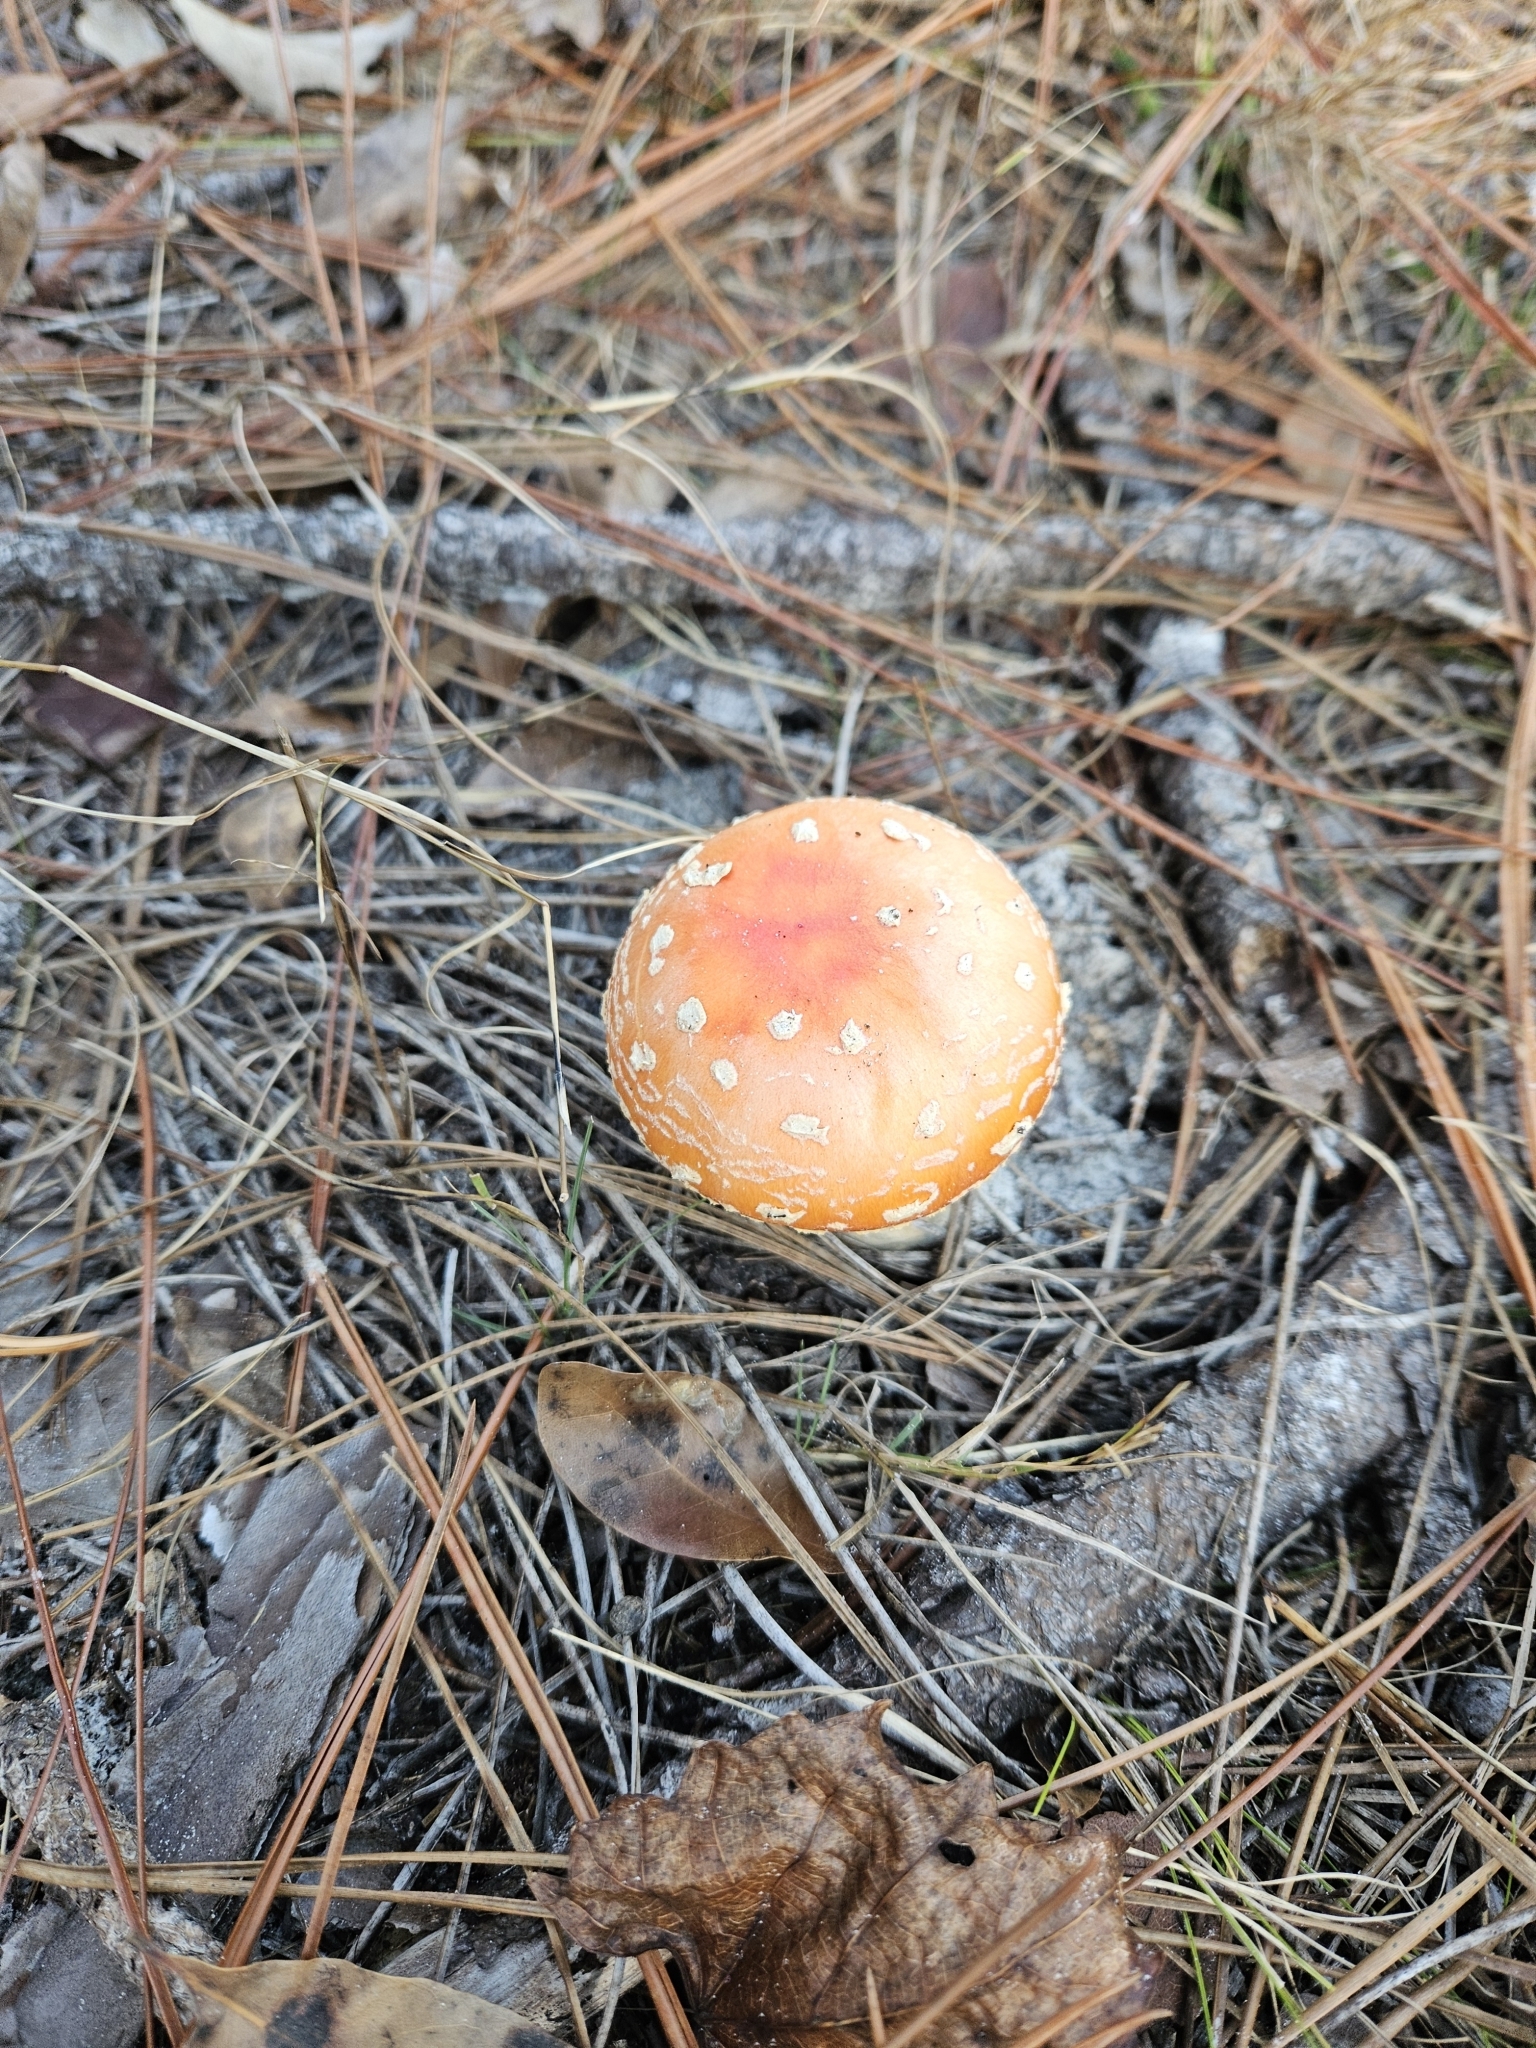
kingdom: Fungi
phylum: Basidiomycota
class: Agaricomycetes
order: Agaricales
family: Amanitaceae
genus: Amanita
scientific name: Amanita persicina
